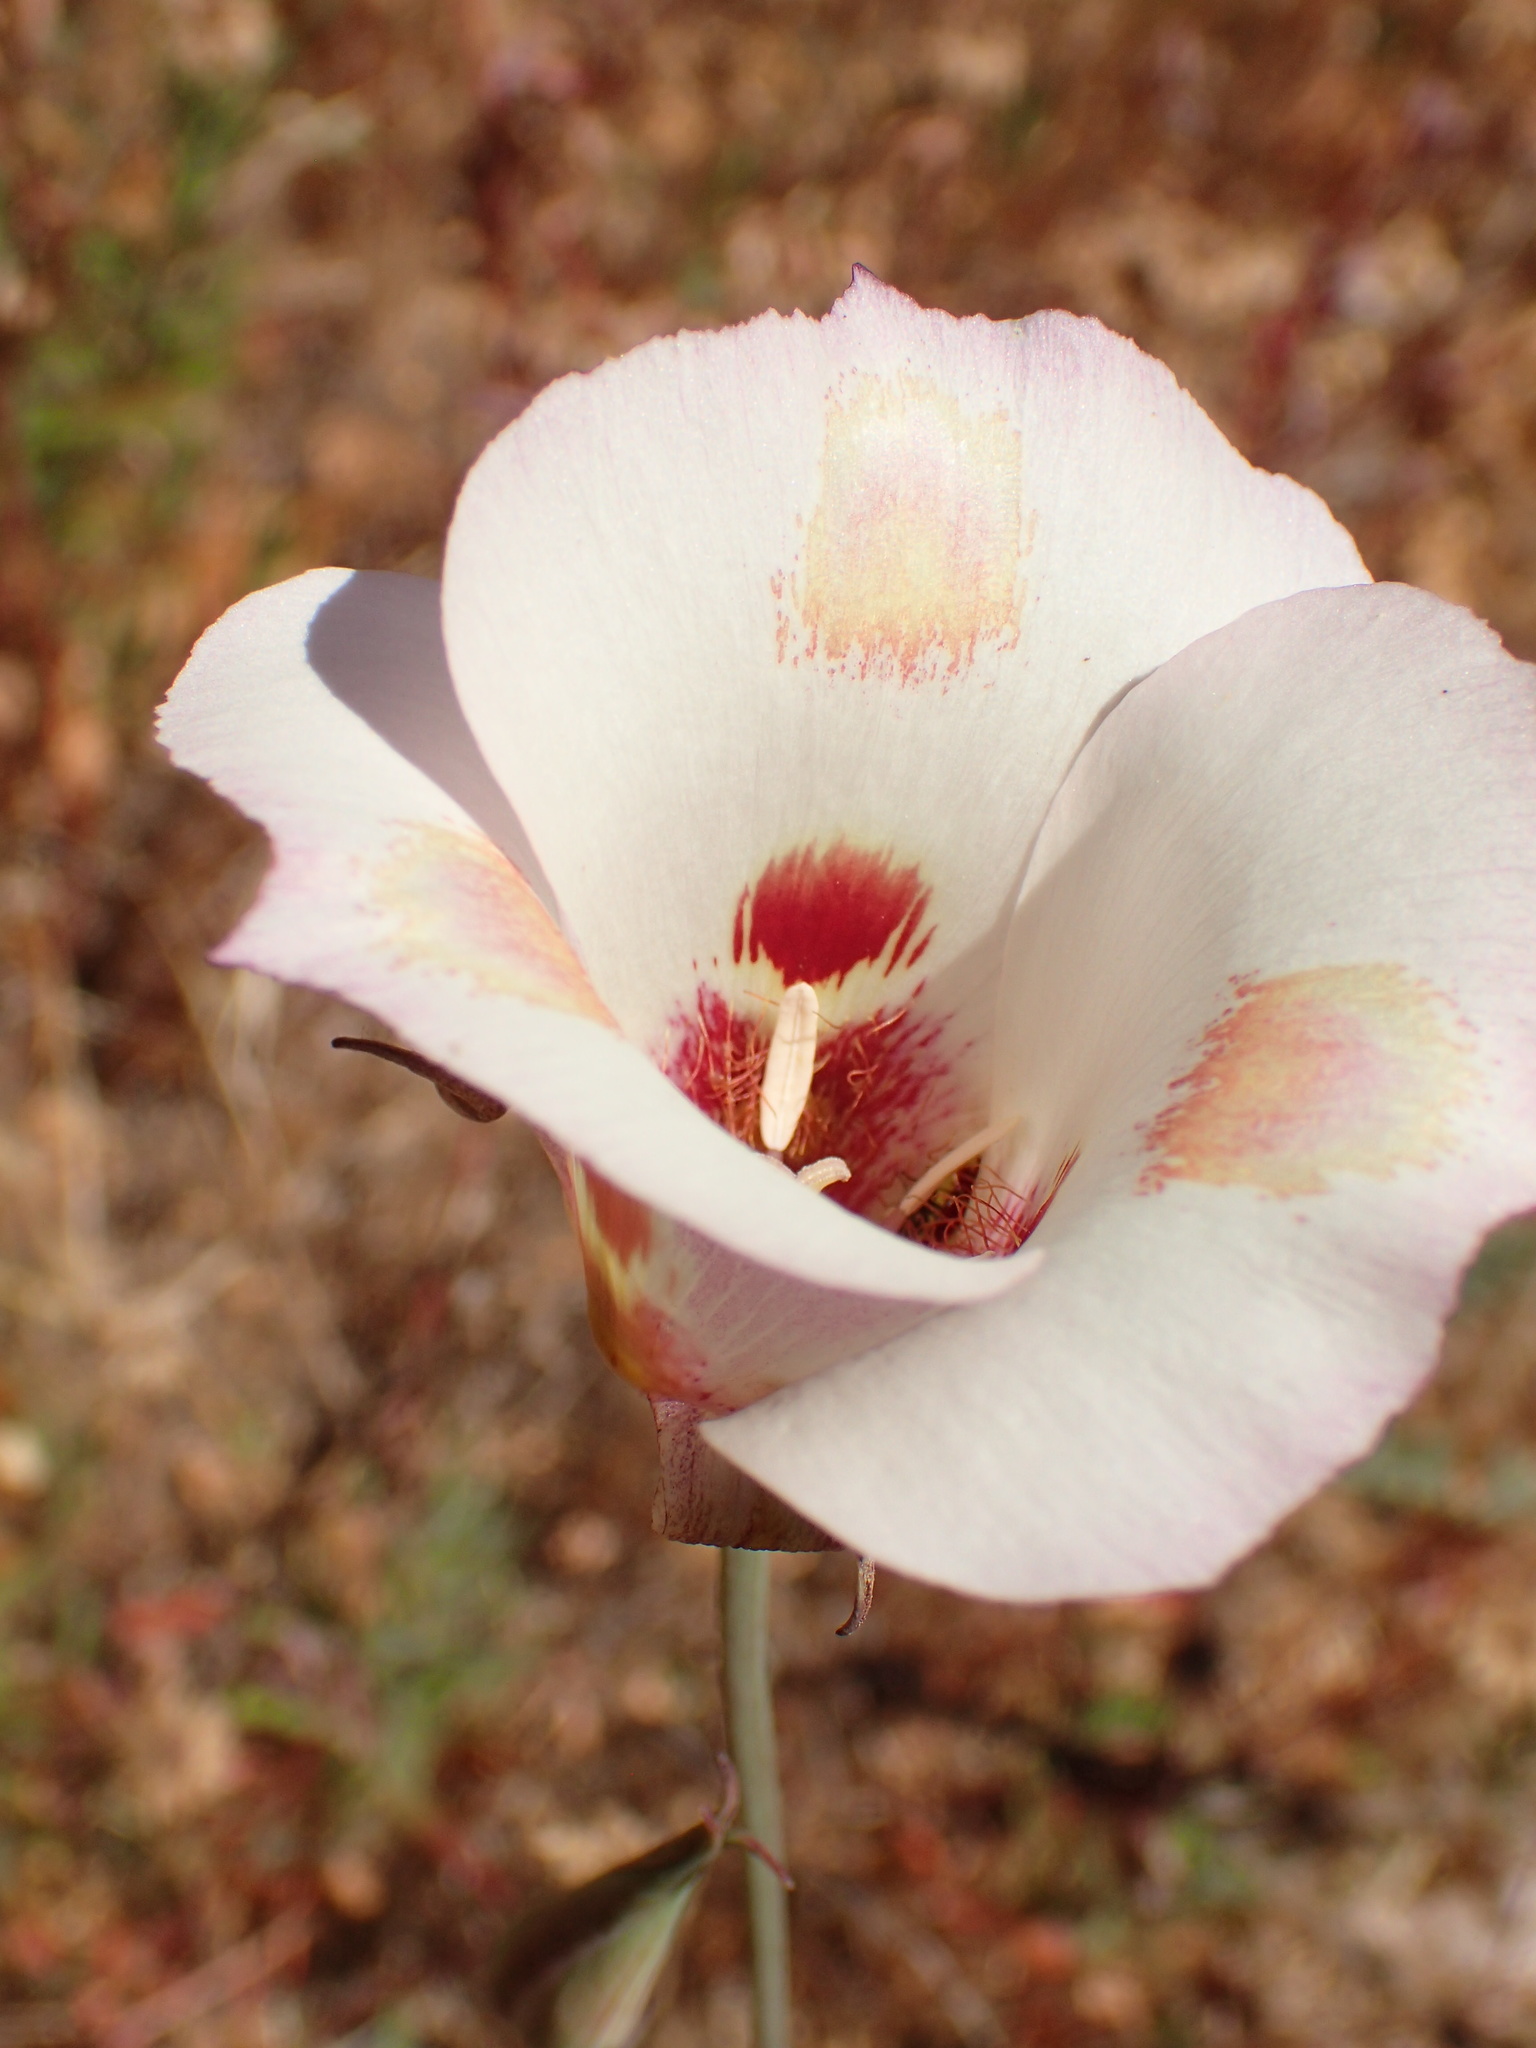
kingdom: Plantae
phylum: Tracheophyta
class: Liliopsida
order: Liliales
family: Liliaceae
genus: Calochortus
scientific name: Calochortus venustus
